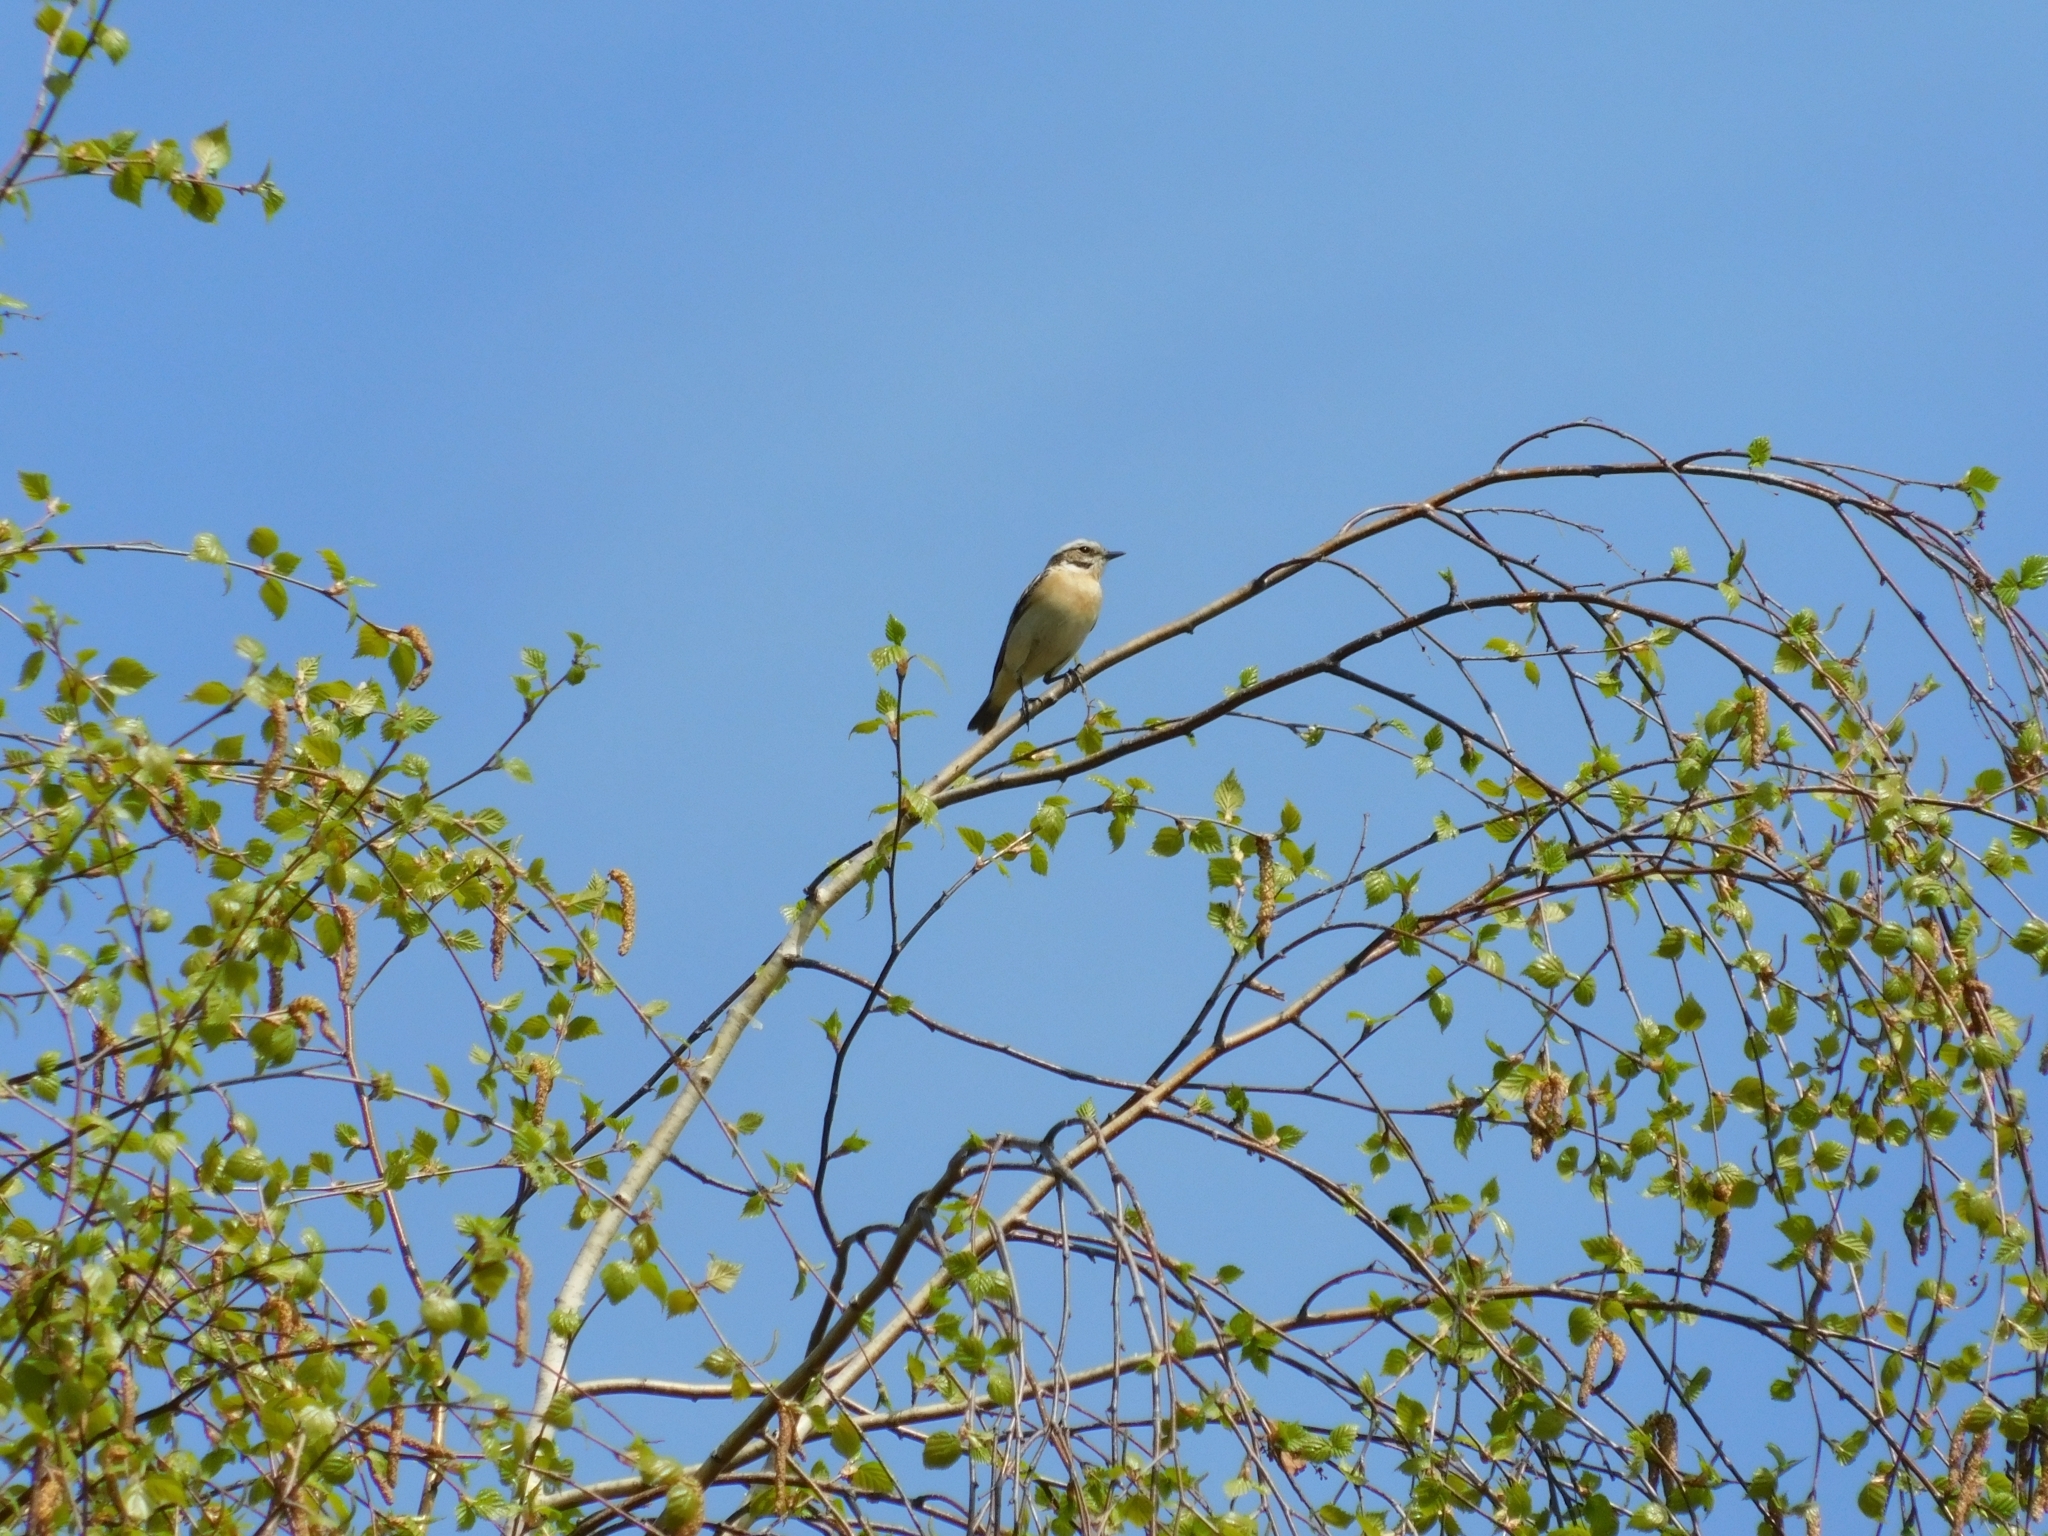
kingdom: Animalia
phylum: Chordata
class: Aves
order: Passeriformes
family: Muscicapidae
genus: Saxicola
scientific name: Saxicola rubetra
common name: Whinchat
